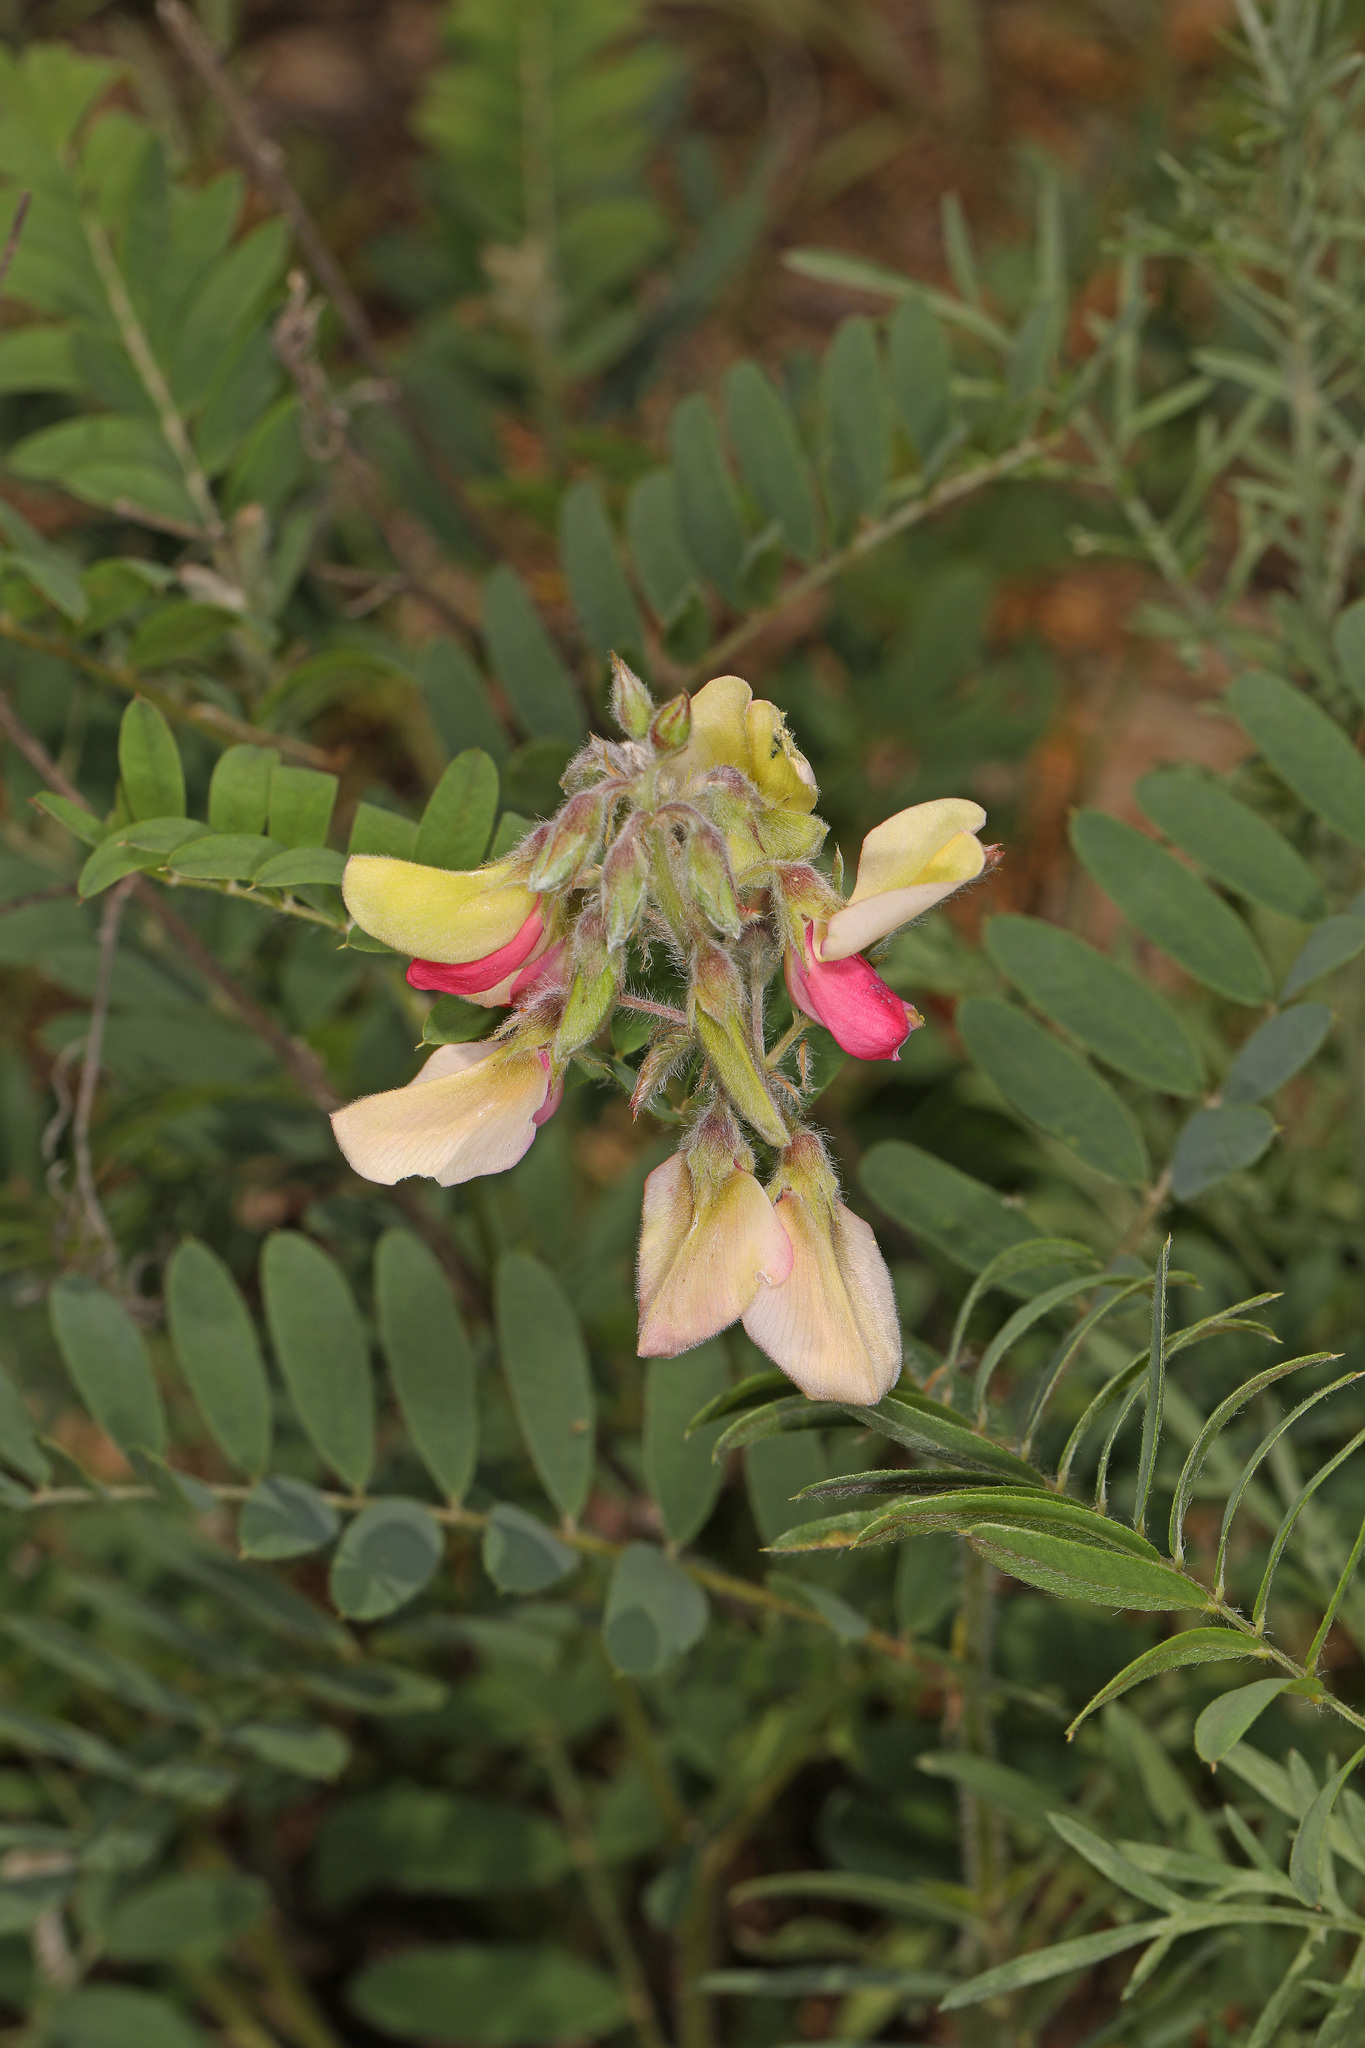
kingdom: Plantae
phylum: Tracheophyta
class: Magnoliopsida
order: Fabales
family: Fabaceae
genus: Tephrosia
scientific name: Tephrosia virginiana
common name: Rabbit-pea
